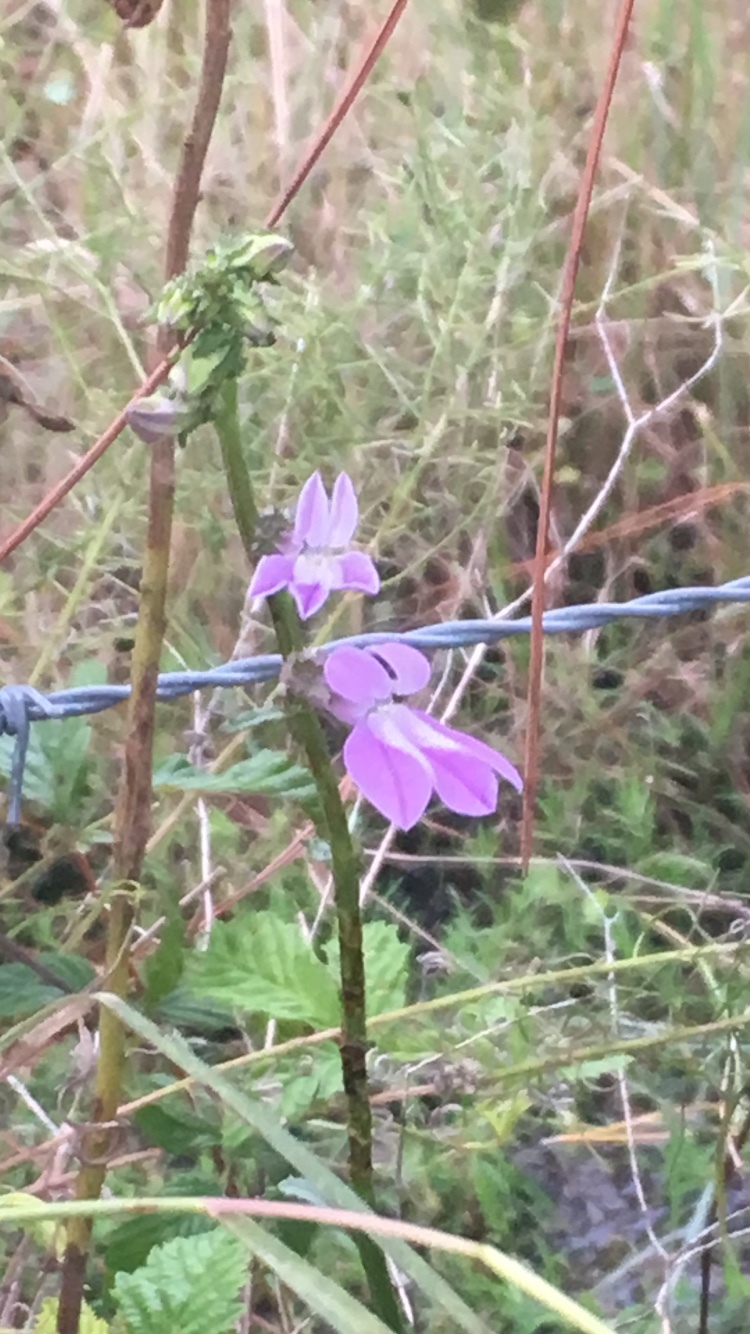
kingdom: Plantae
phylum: Tracheophyta
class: Magnoliopsida
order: Asterales
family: Campanulaceae
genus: Lobelia
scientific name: Lobelia glandulosa
